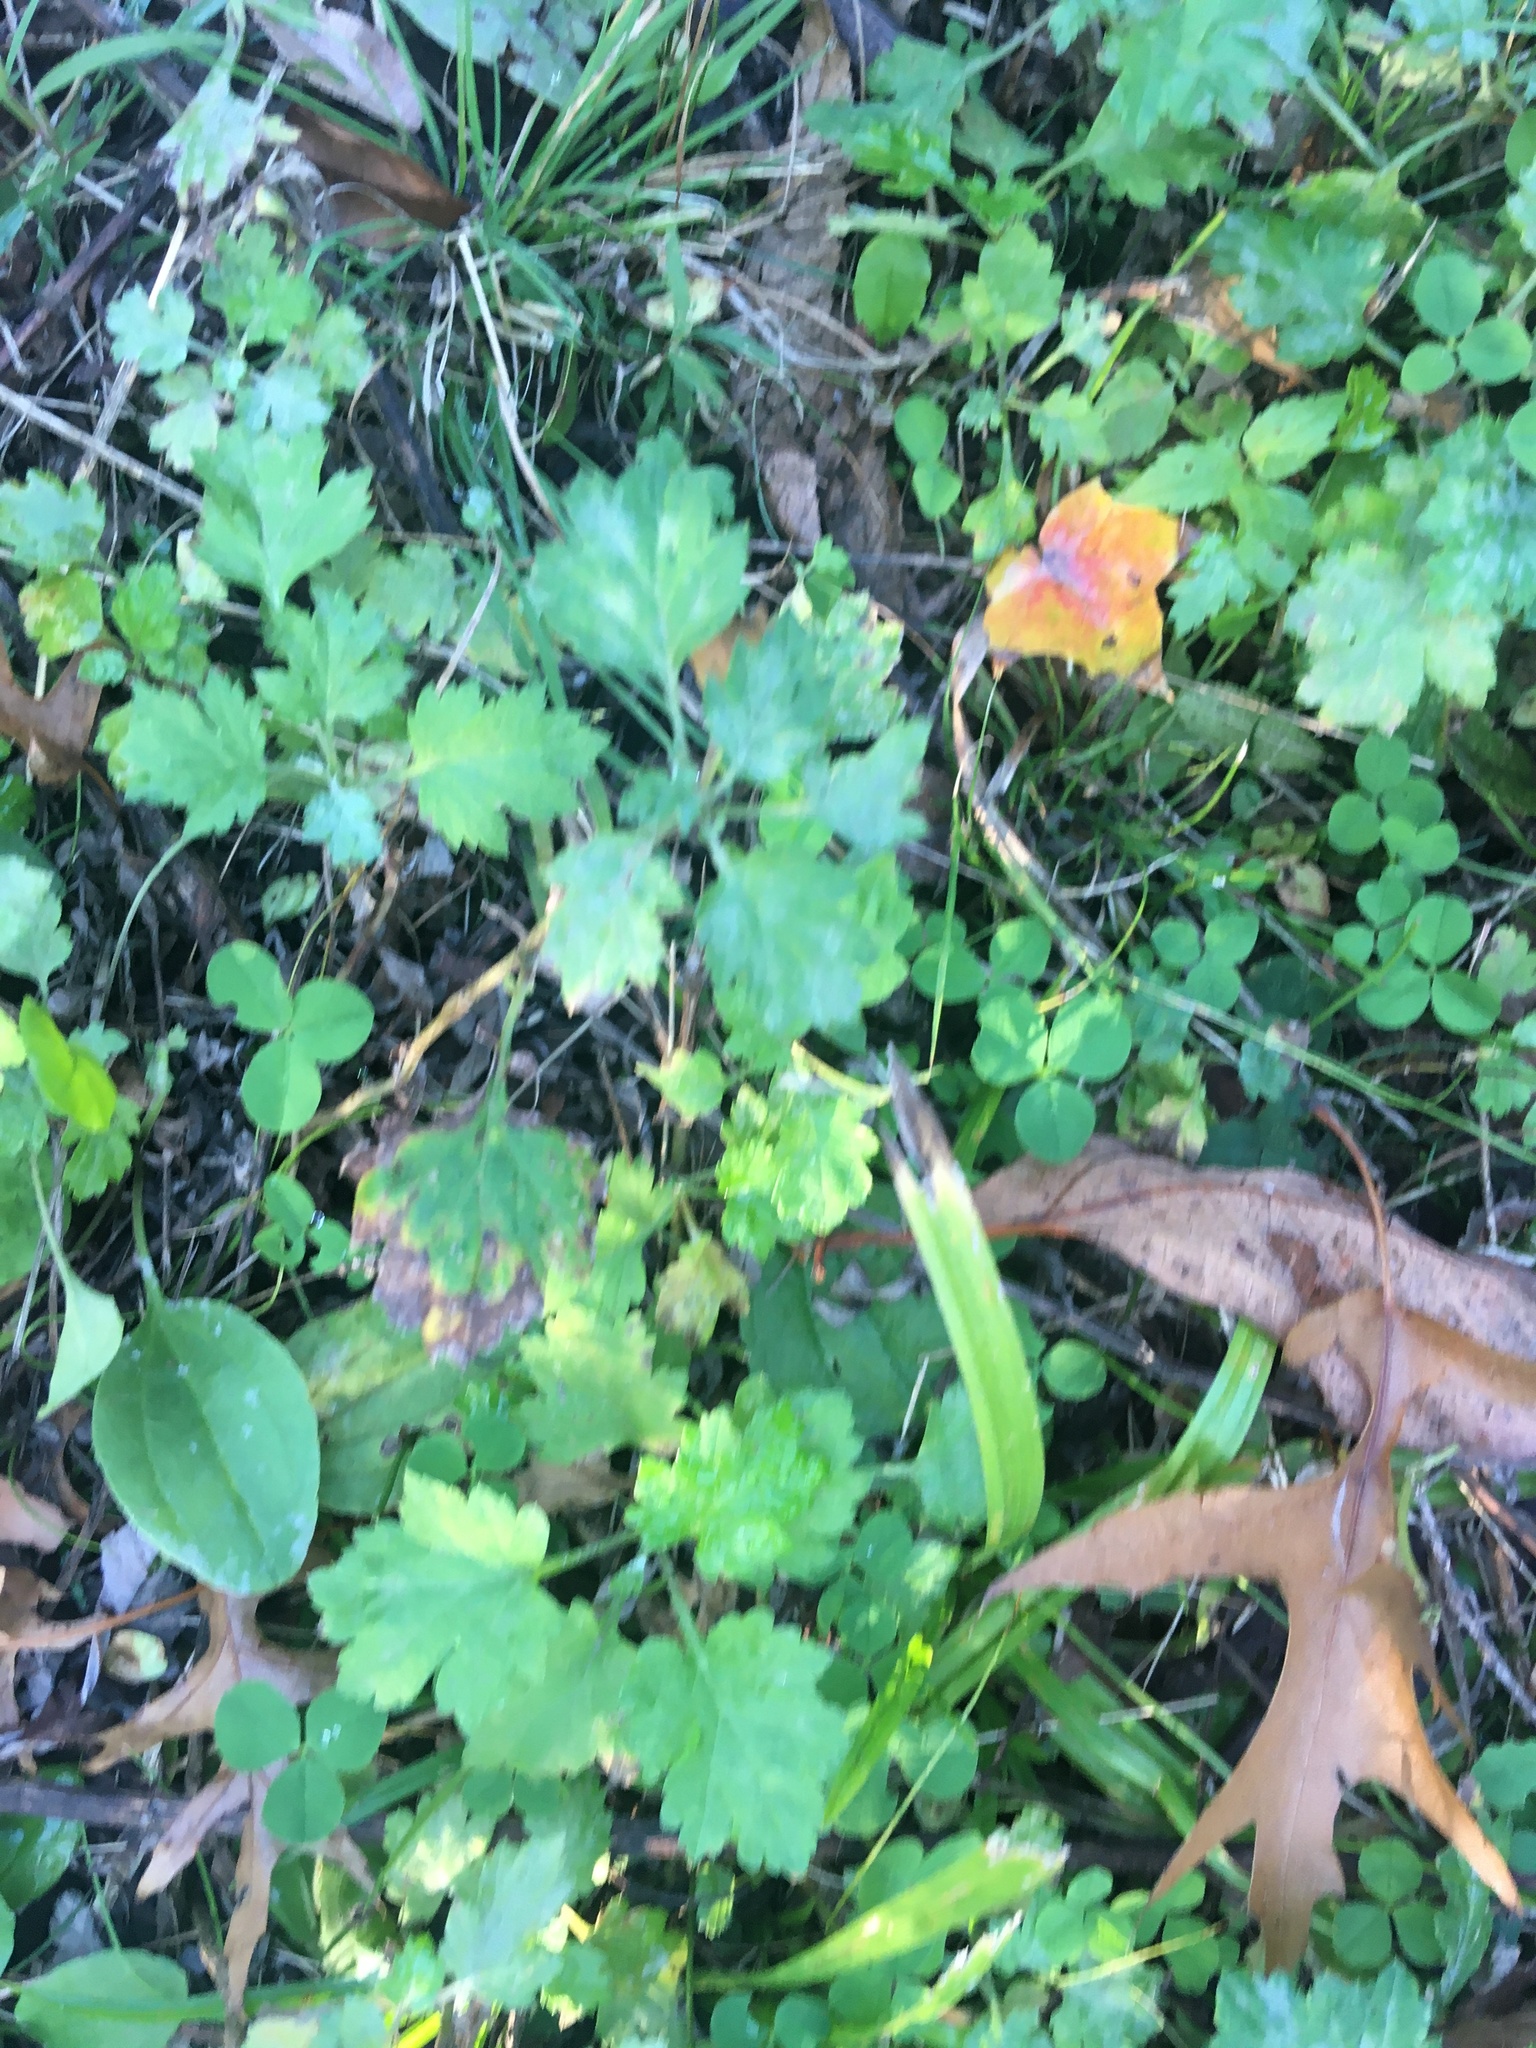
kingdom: Plantae
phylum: Tracheophyta
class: Magnoliopsida
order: Asterales
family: Asteraceae
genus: Artemisia
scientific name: Artemisia vulgaris
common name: Mugwort
